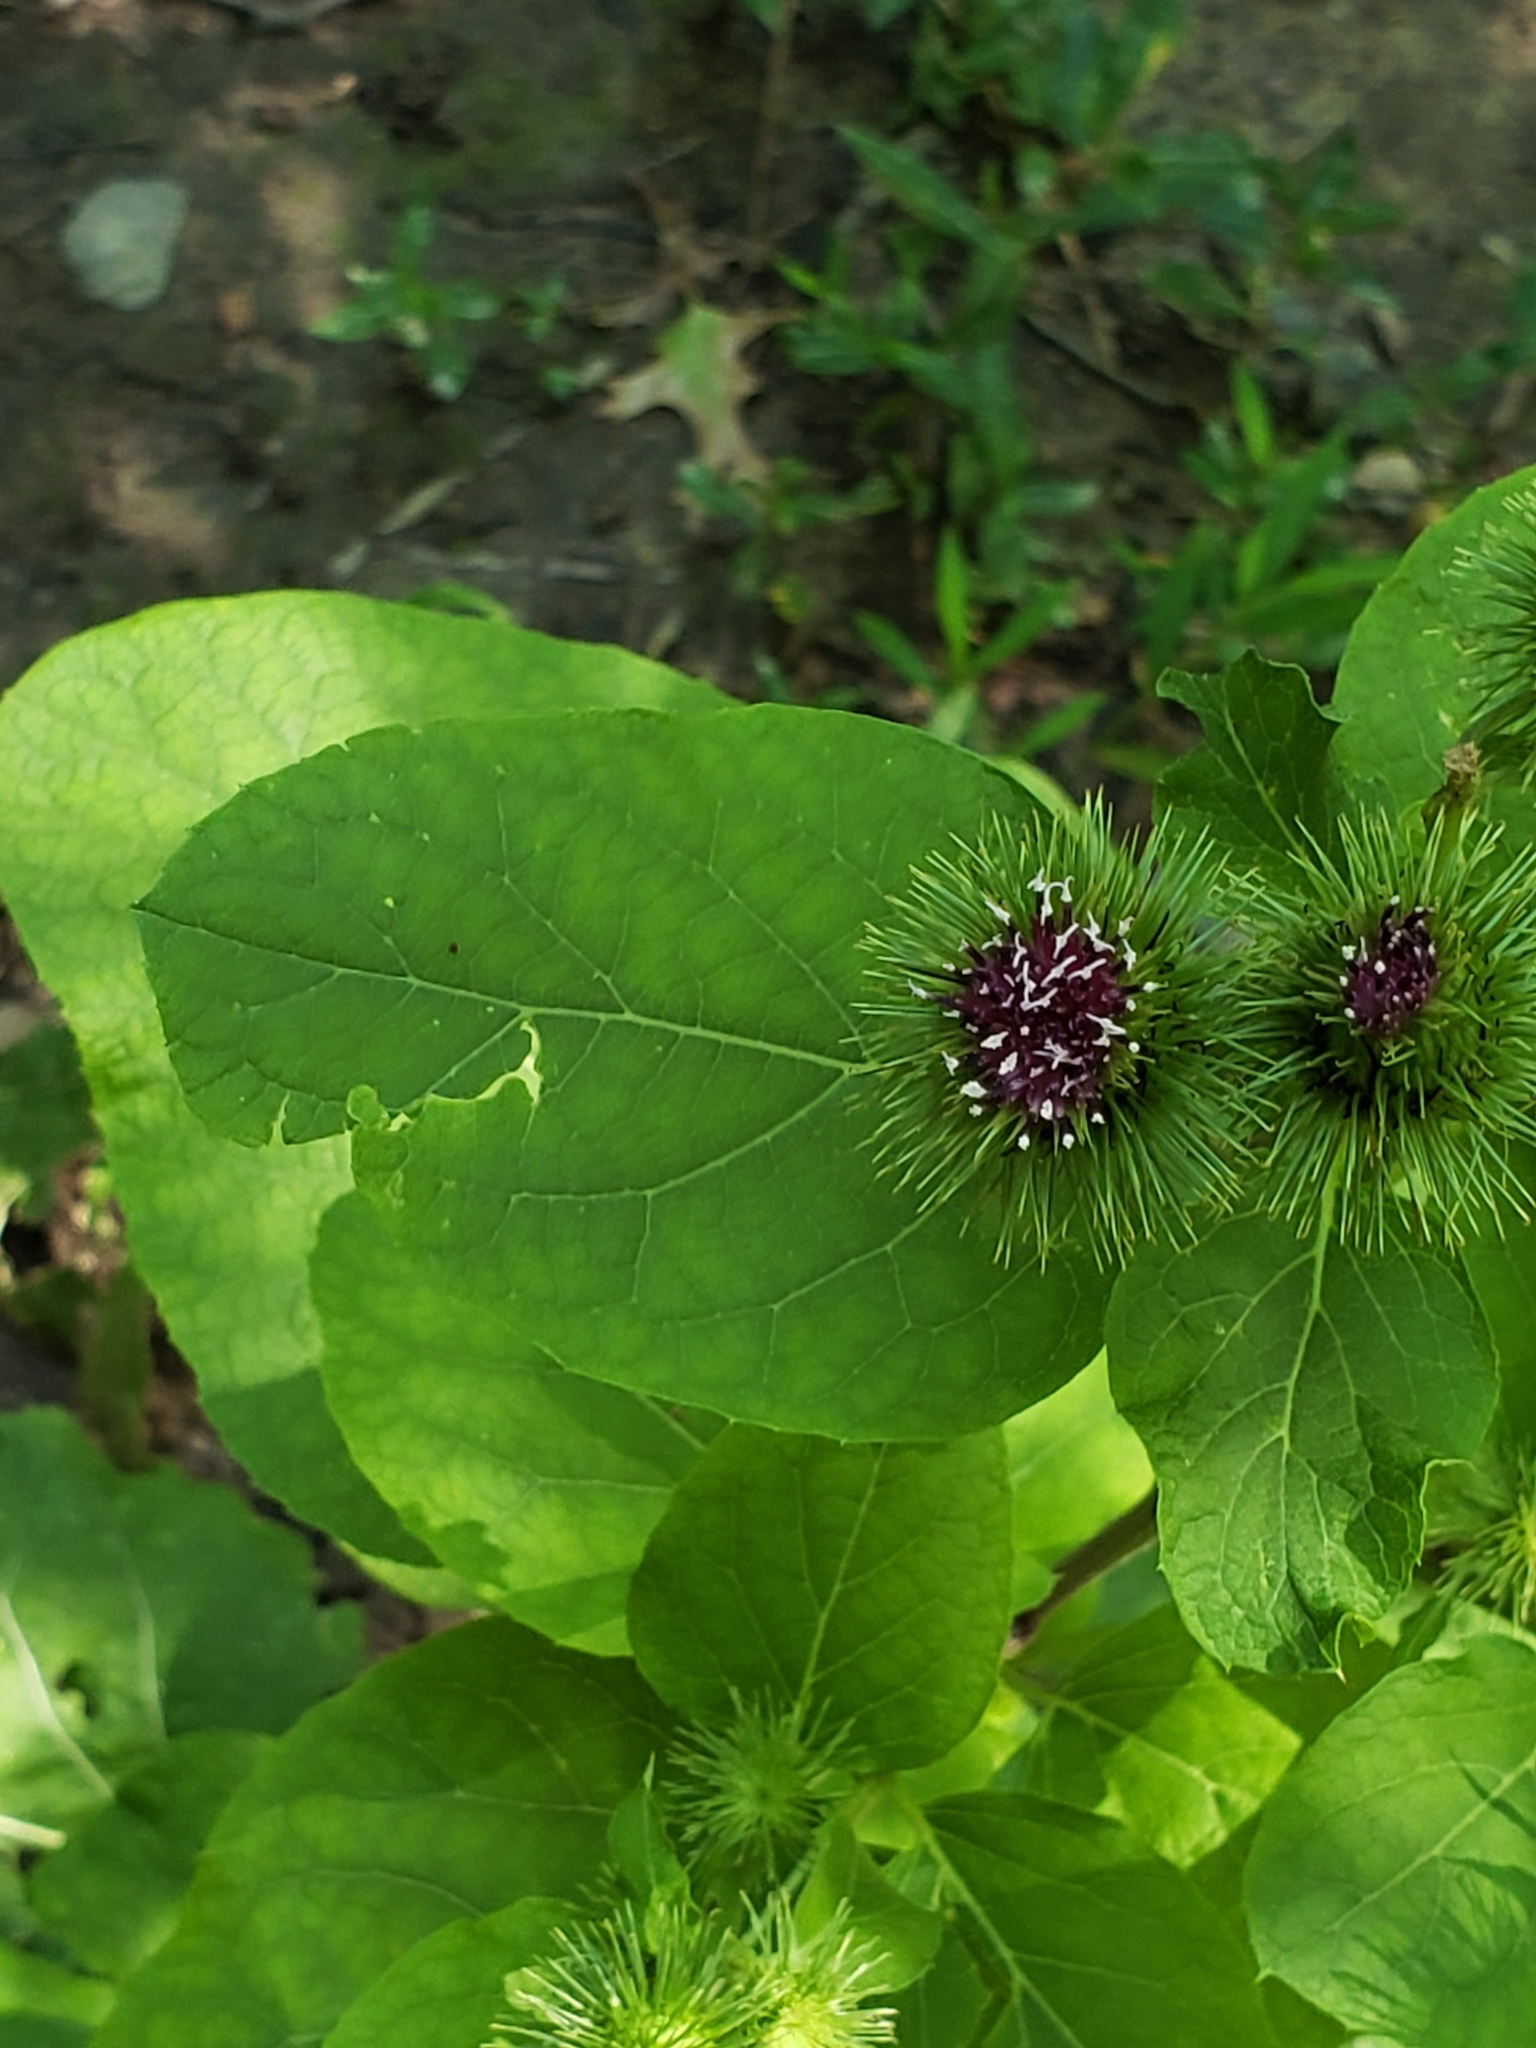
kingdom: Plantae
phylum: Tracheophyta
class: Magnoliopsida
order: Asterales
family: Asteraceae
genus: Arctium
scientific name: Arctium lappa
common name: Greater burdock
